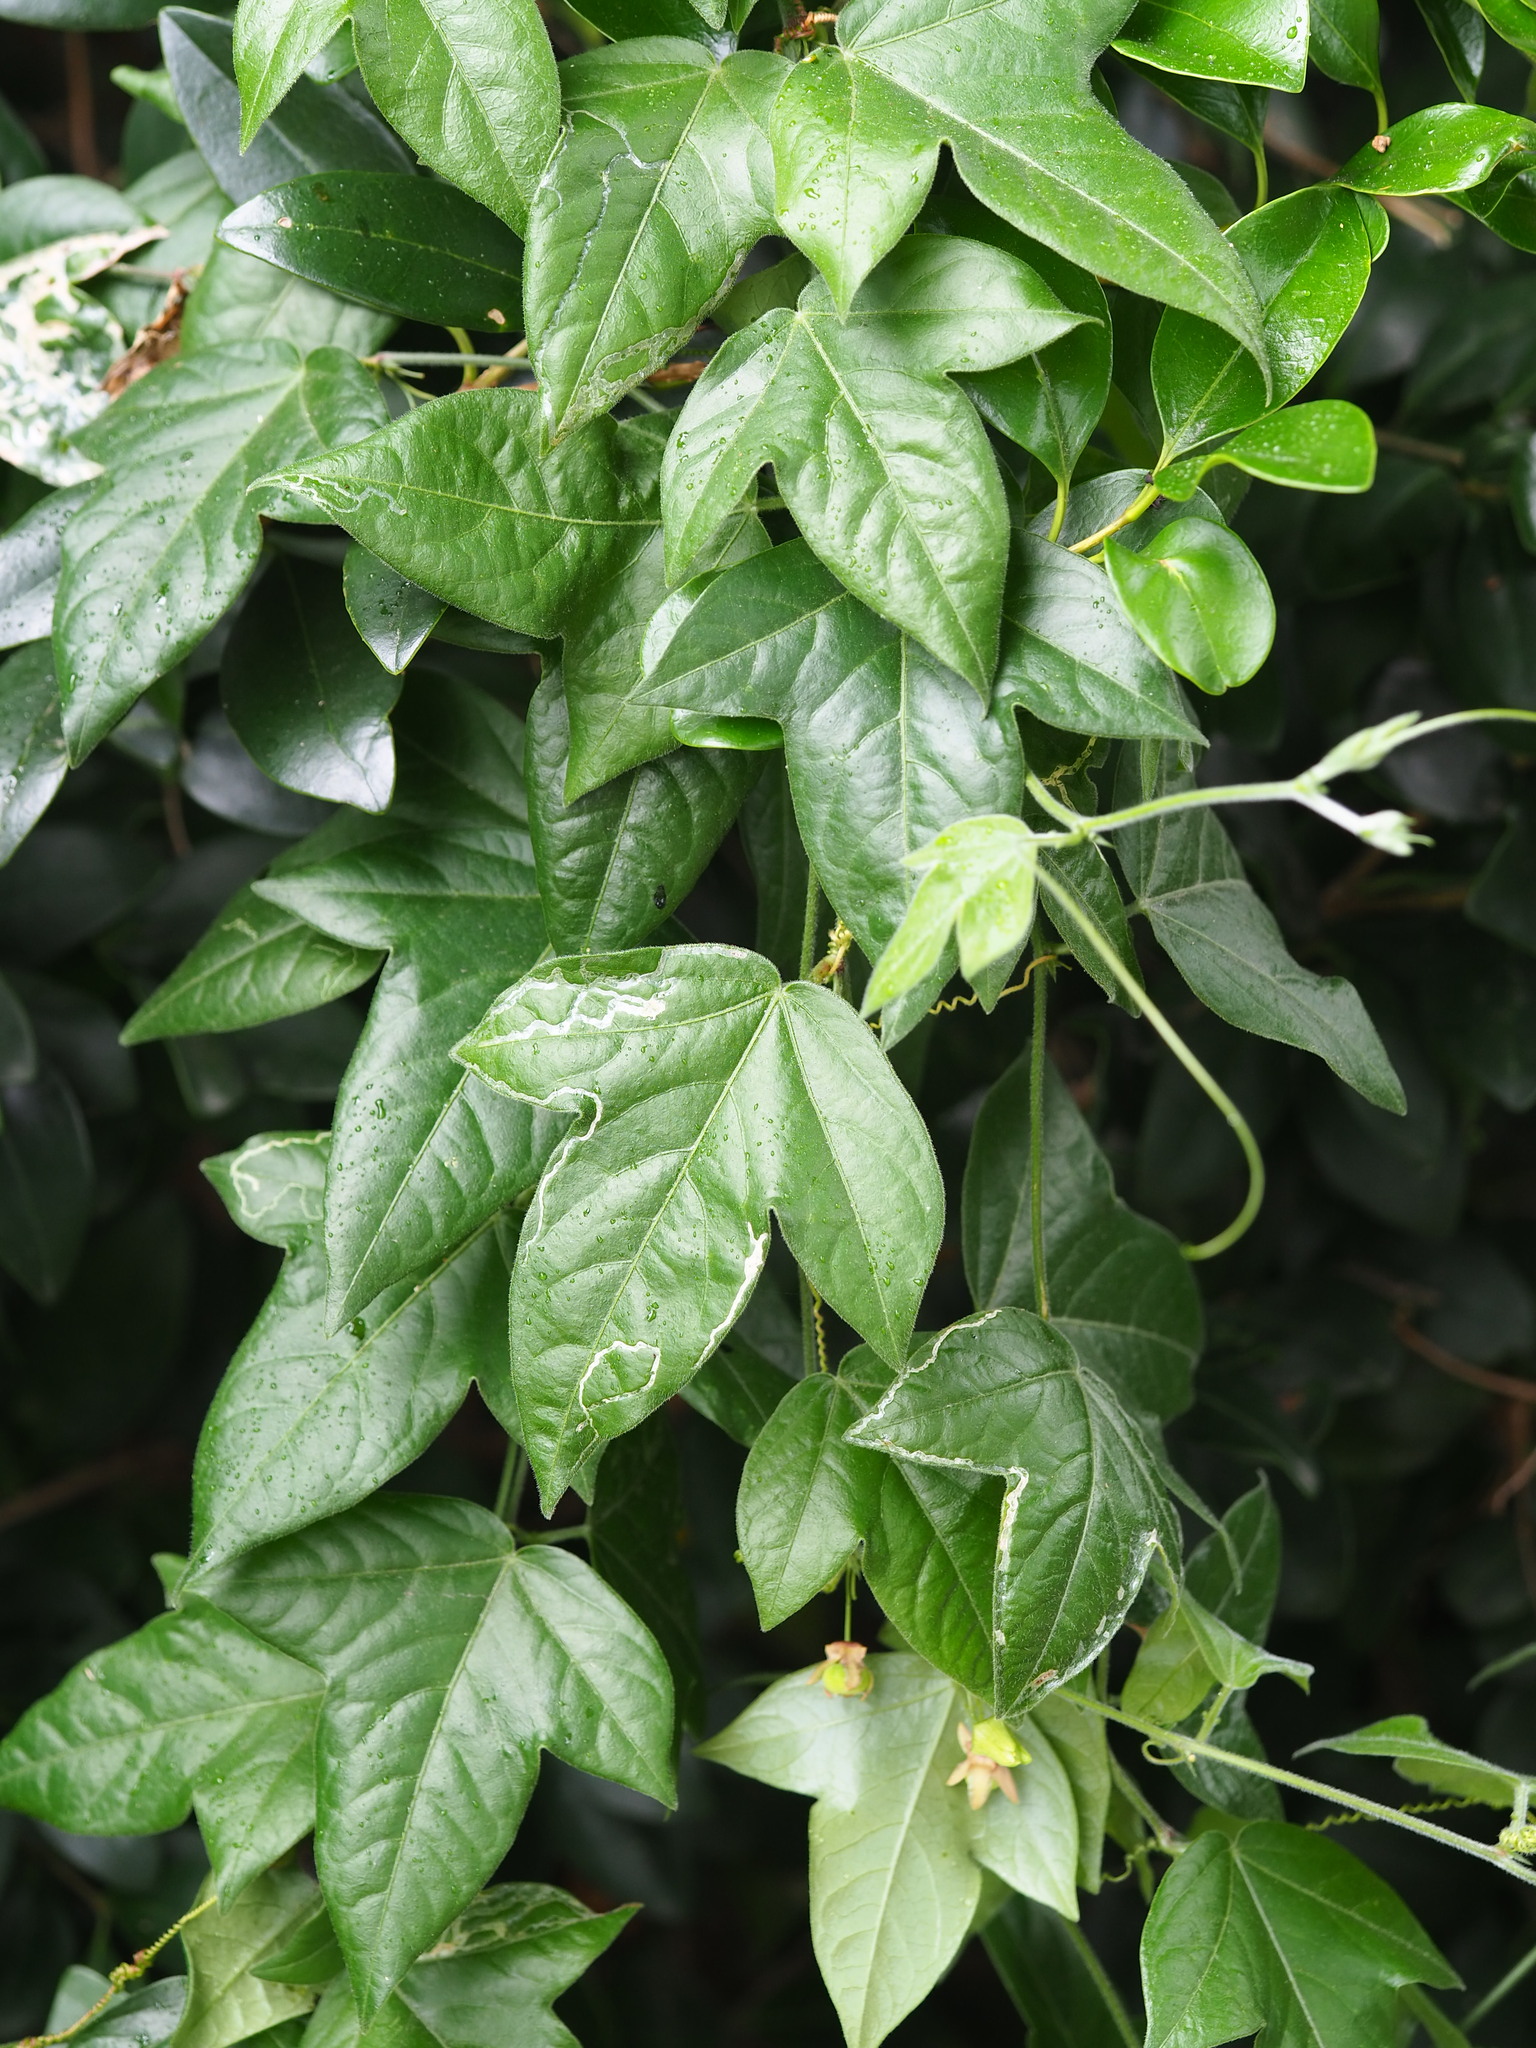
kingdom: Plantae
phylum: Tracheophyta
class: Magnoliopsida
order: Malpighiales
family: Passifloraceae
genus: Passiflora
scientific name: Passiflora suberosa
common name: Wild passionfruit
